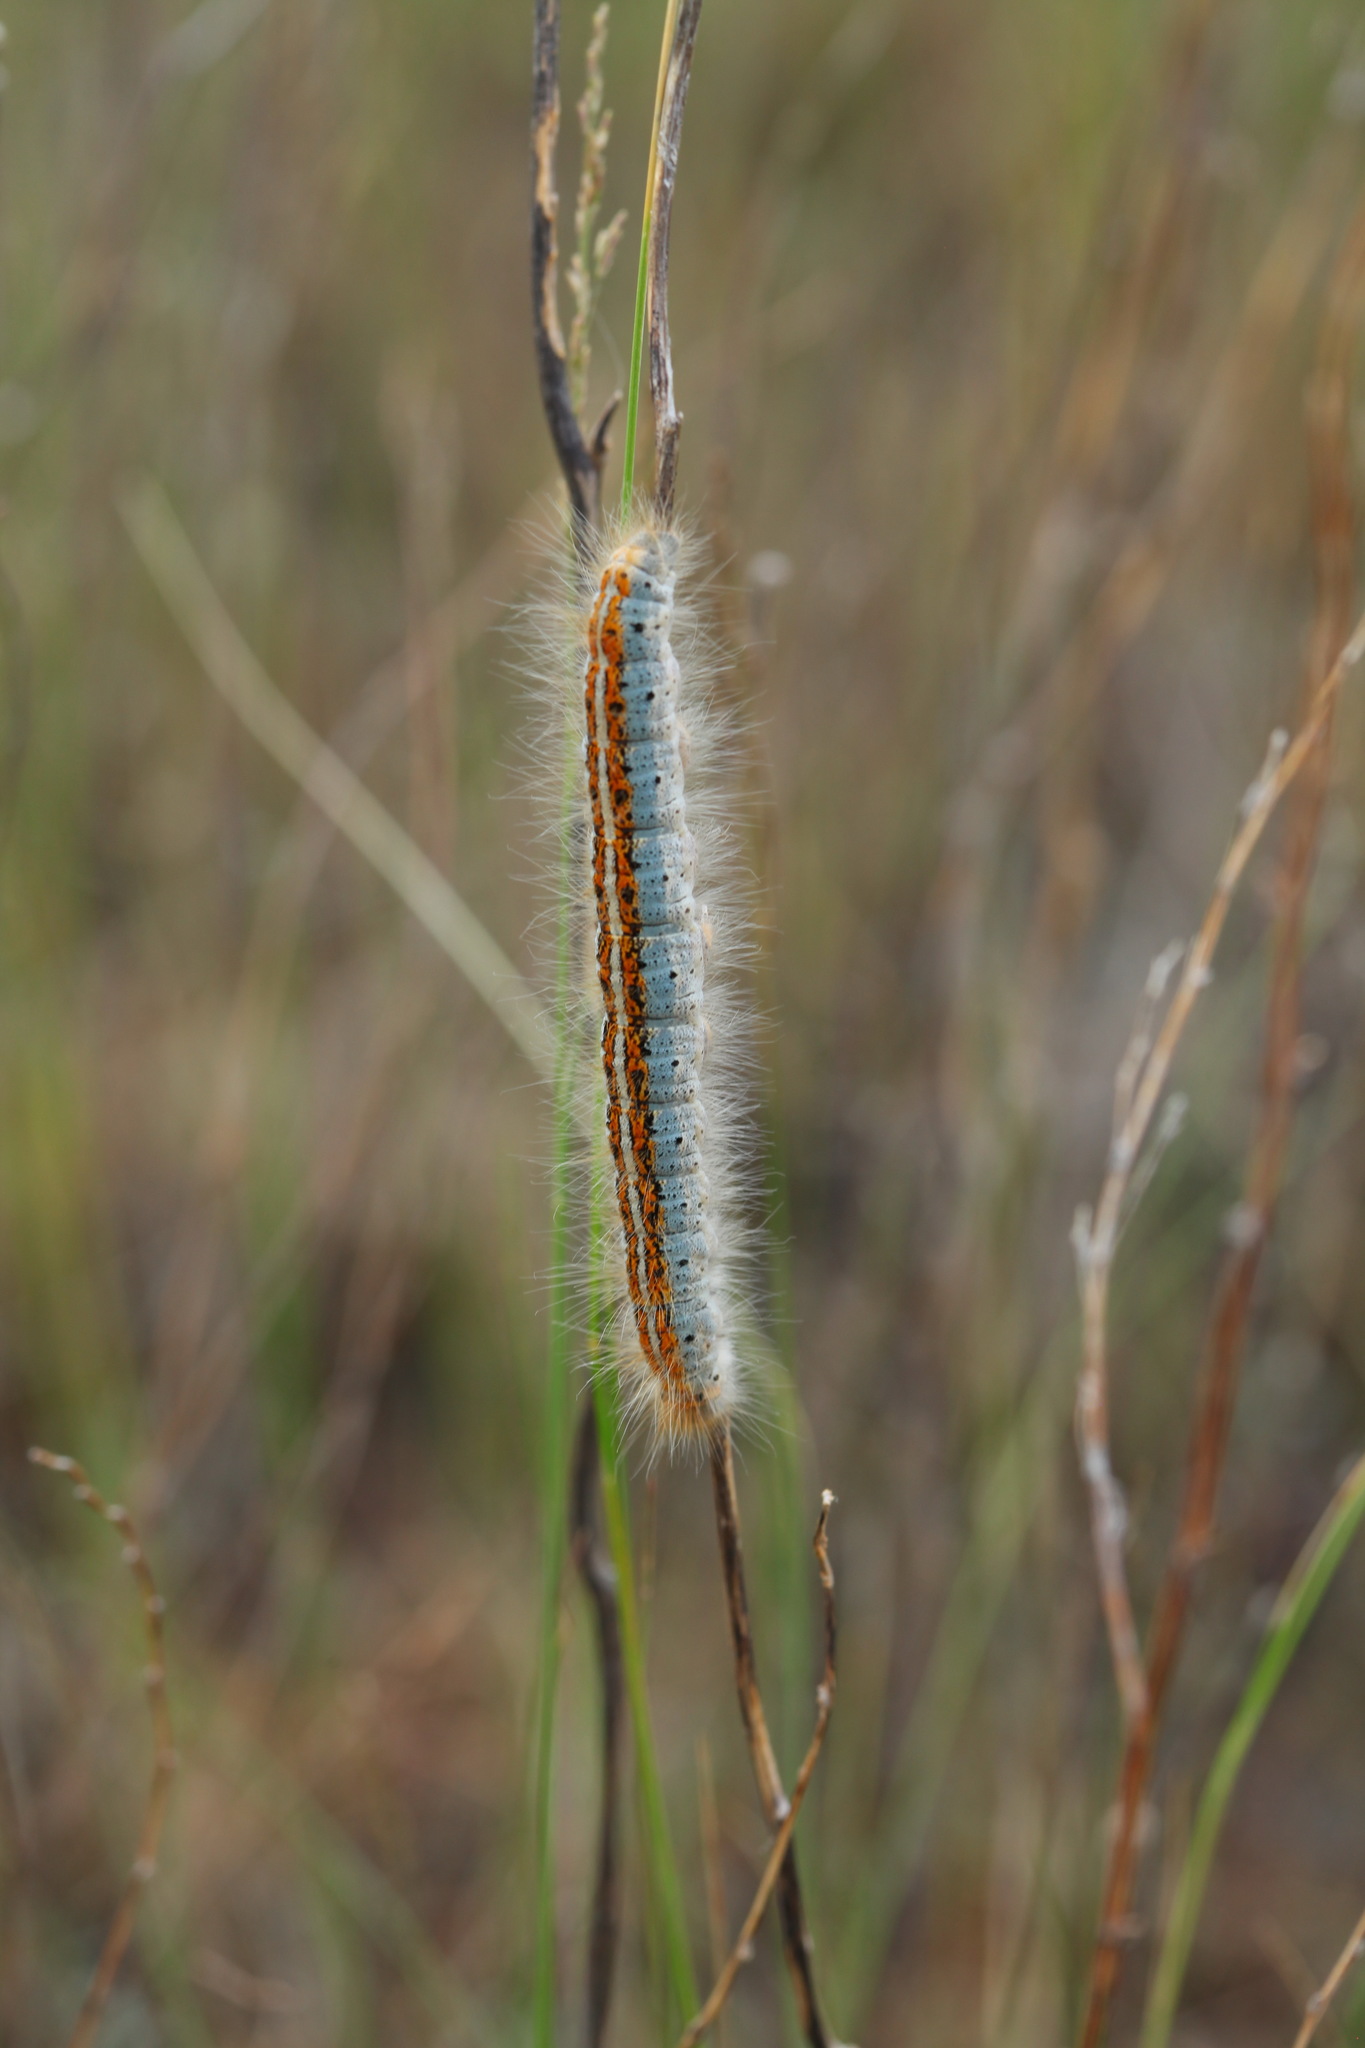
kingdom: Animalia
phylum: Arthropoda
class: Insecta
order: Lepidoptera
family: Lasiocampidae
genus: Malacosoma
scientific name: Malacosoma castrense
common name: Ground lackey
